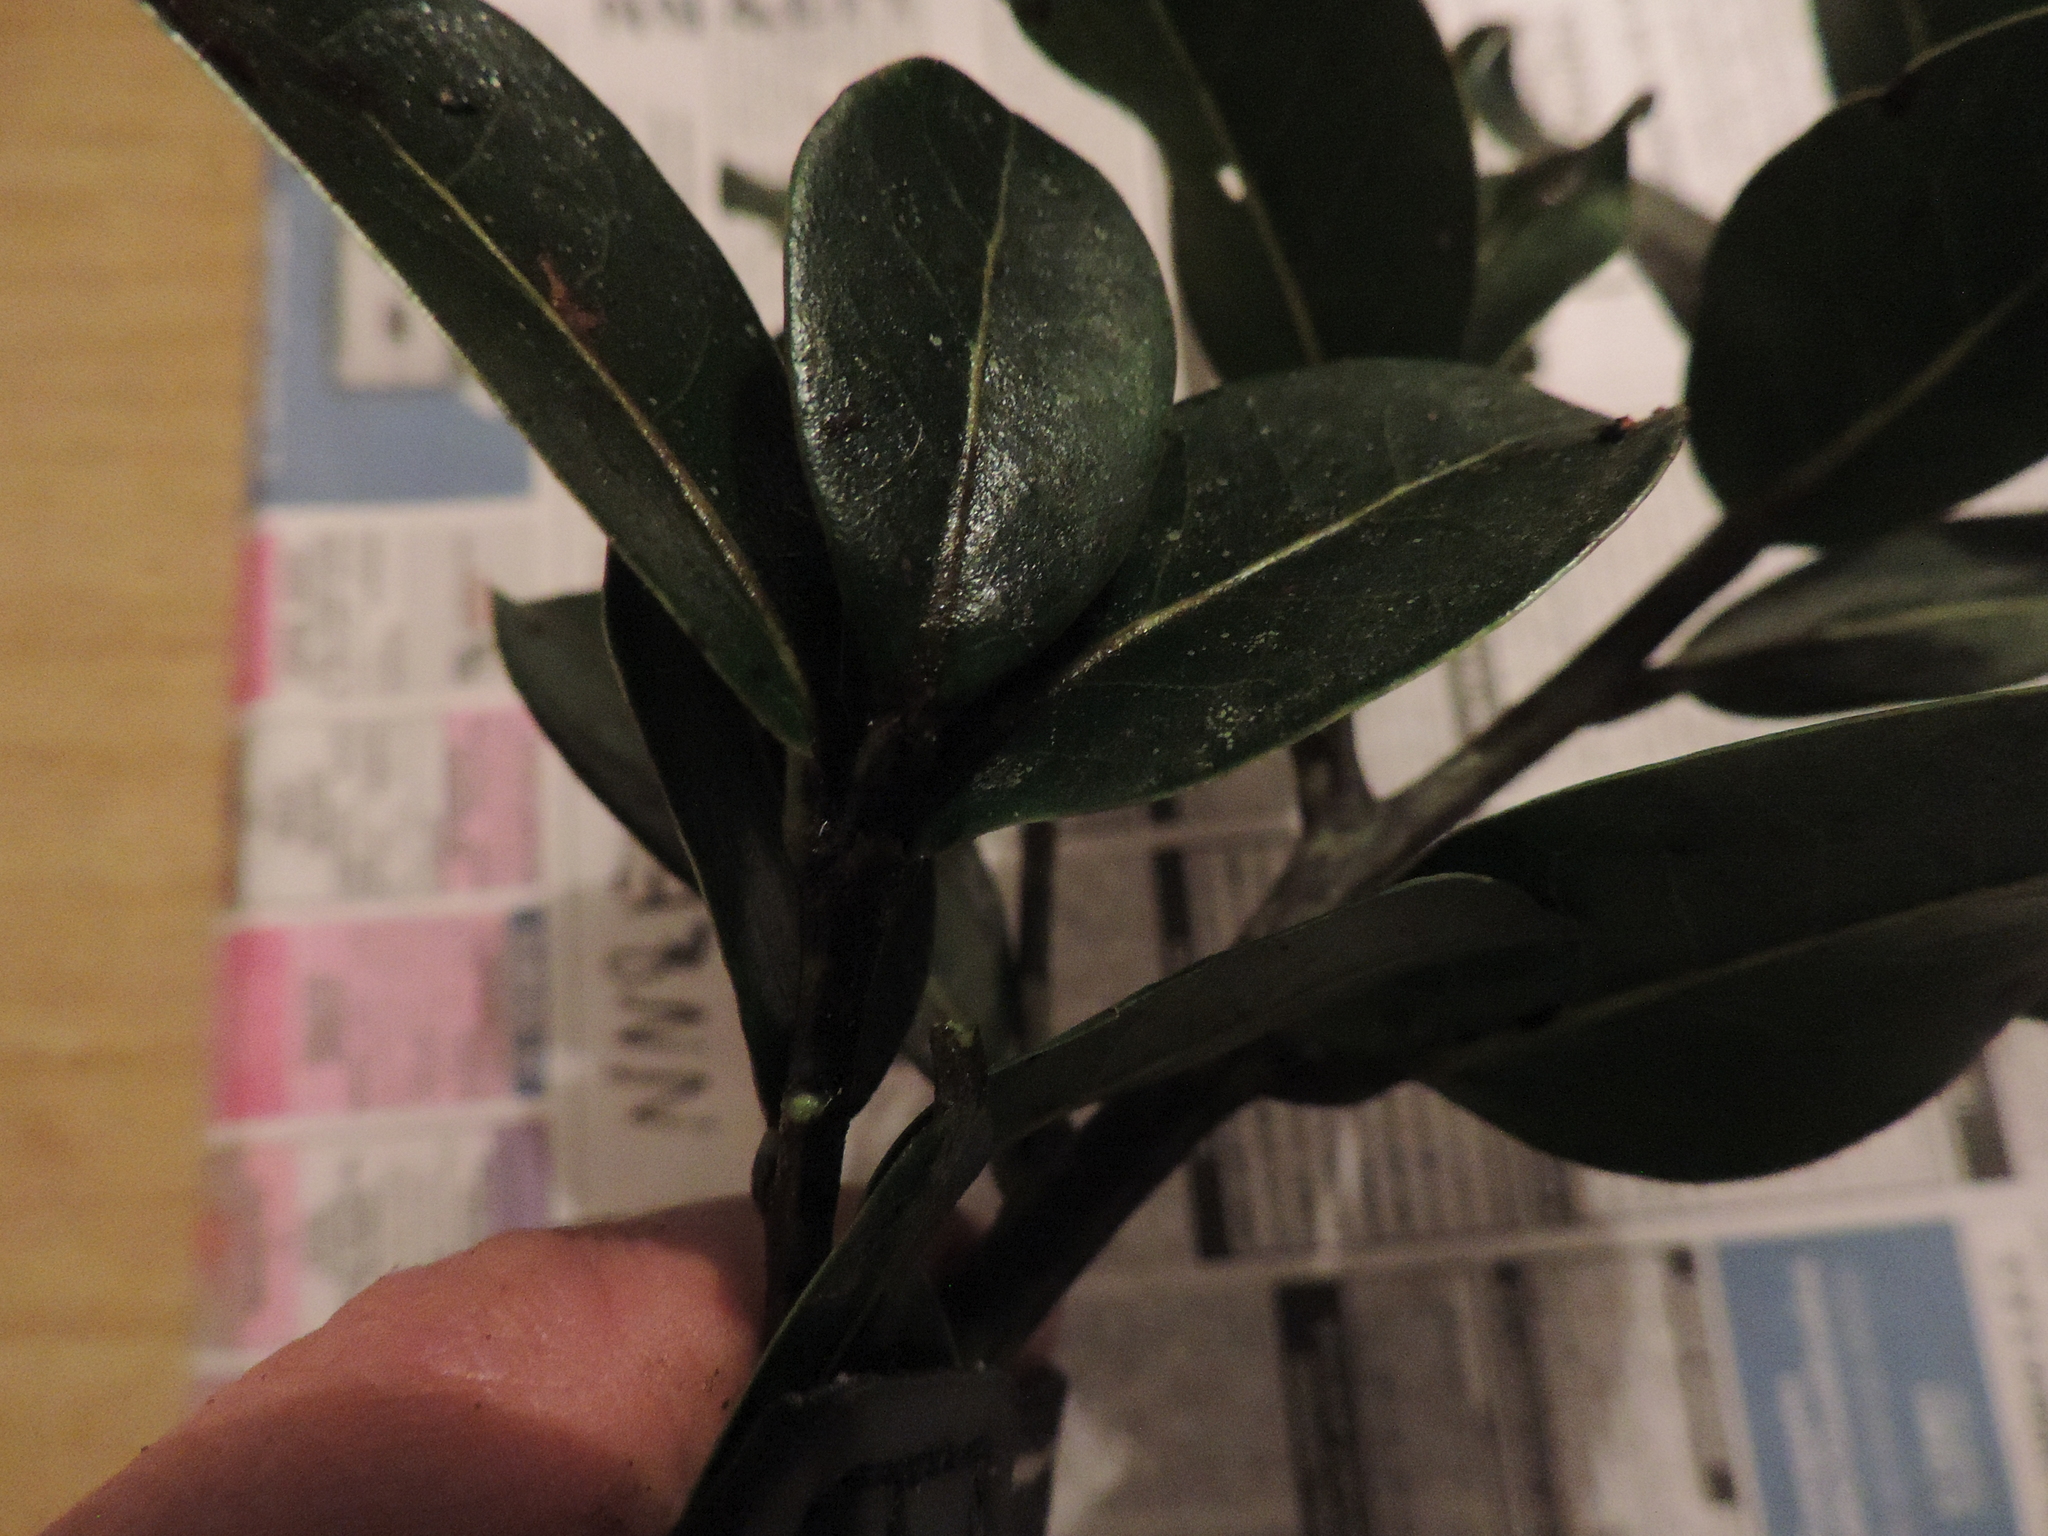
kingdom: Plantae
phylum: Tracheophyta
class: Magnoliopsida
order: Laurales
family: Lauraceae
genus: Aiouea
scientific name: Aiouea dubia
